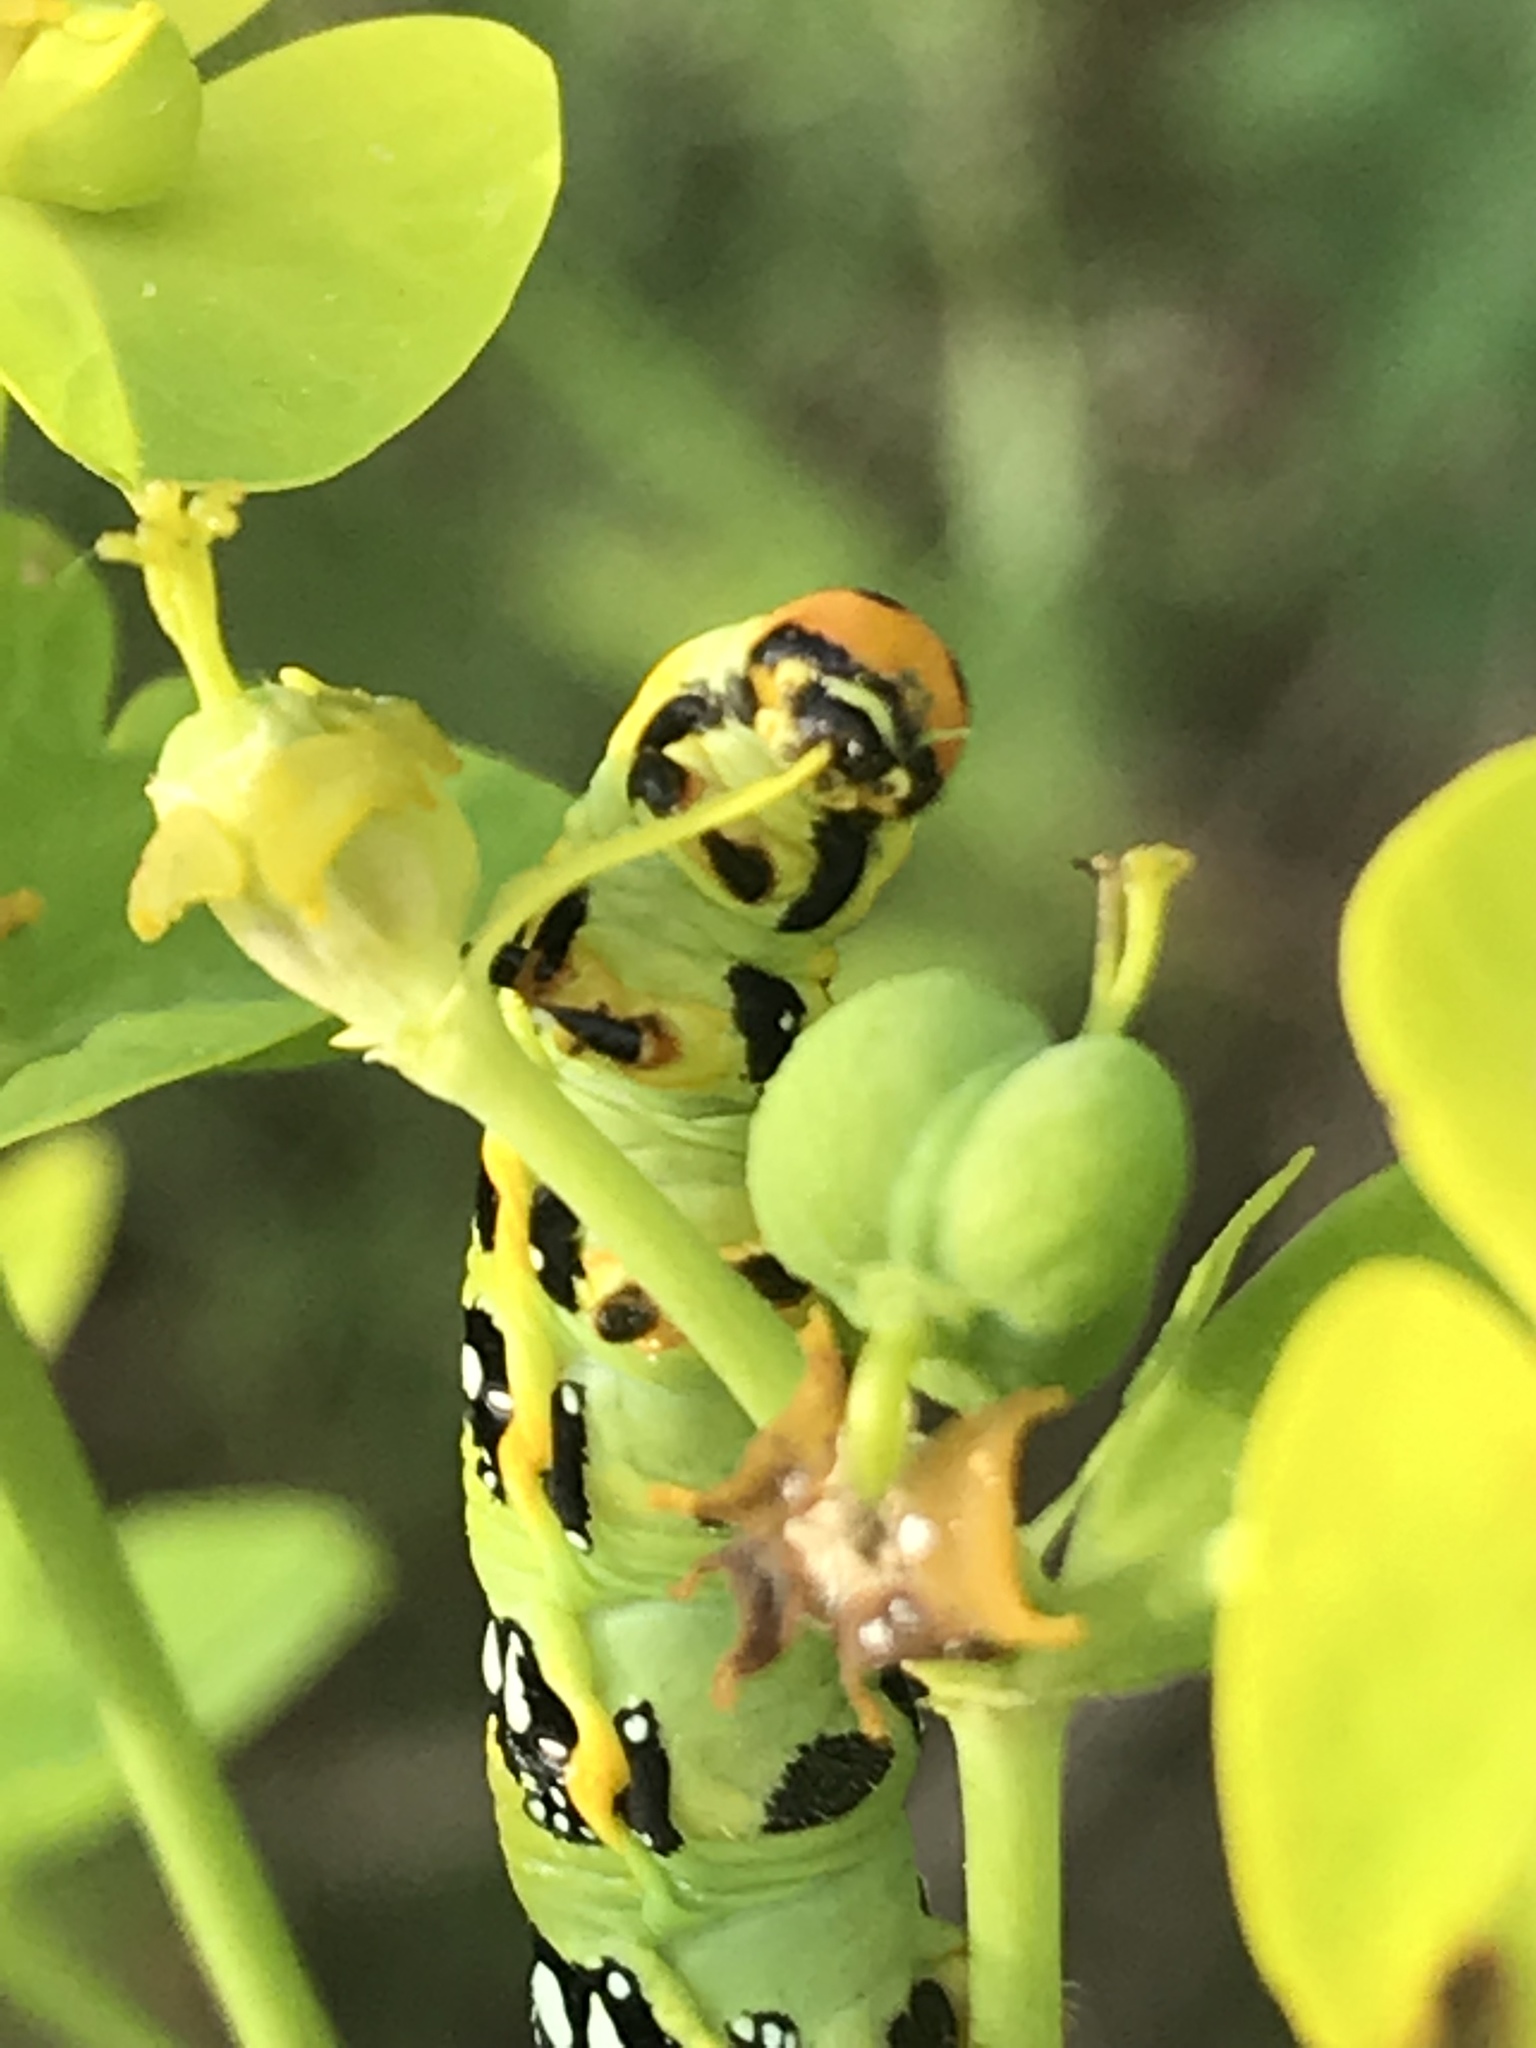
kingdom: Animalia
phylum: Arthropoda
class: Insecta
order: Lepidoptera
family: Sphingidae
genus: Hyles
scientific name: Hyles euphorbiae
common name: Spurge hawk-moth
